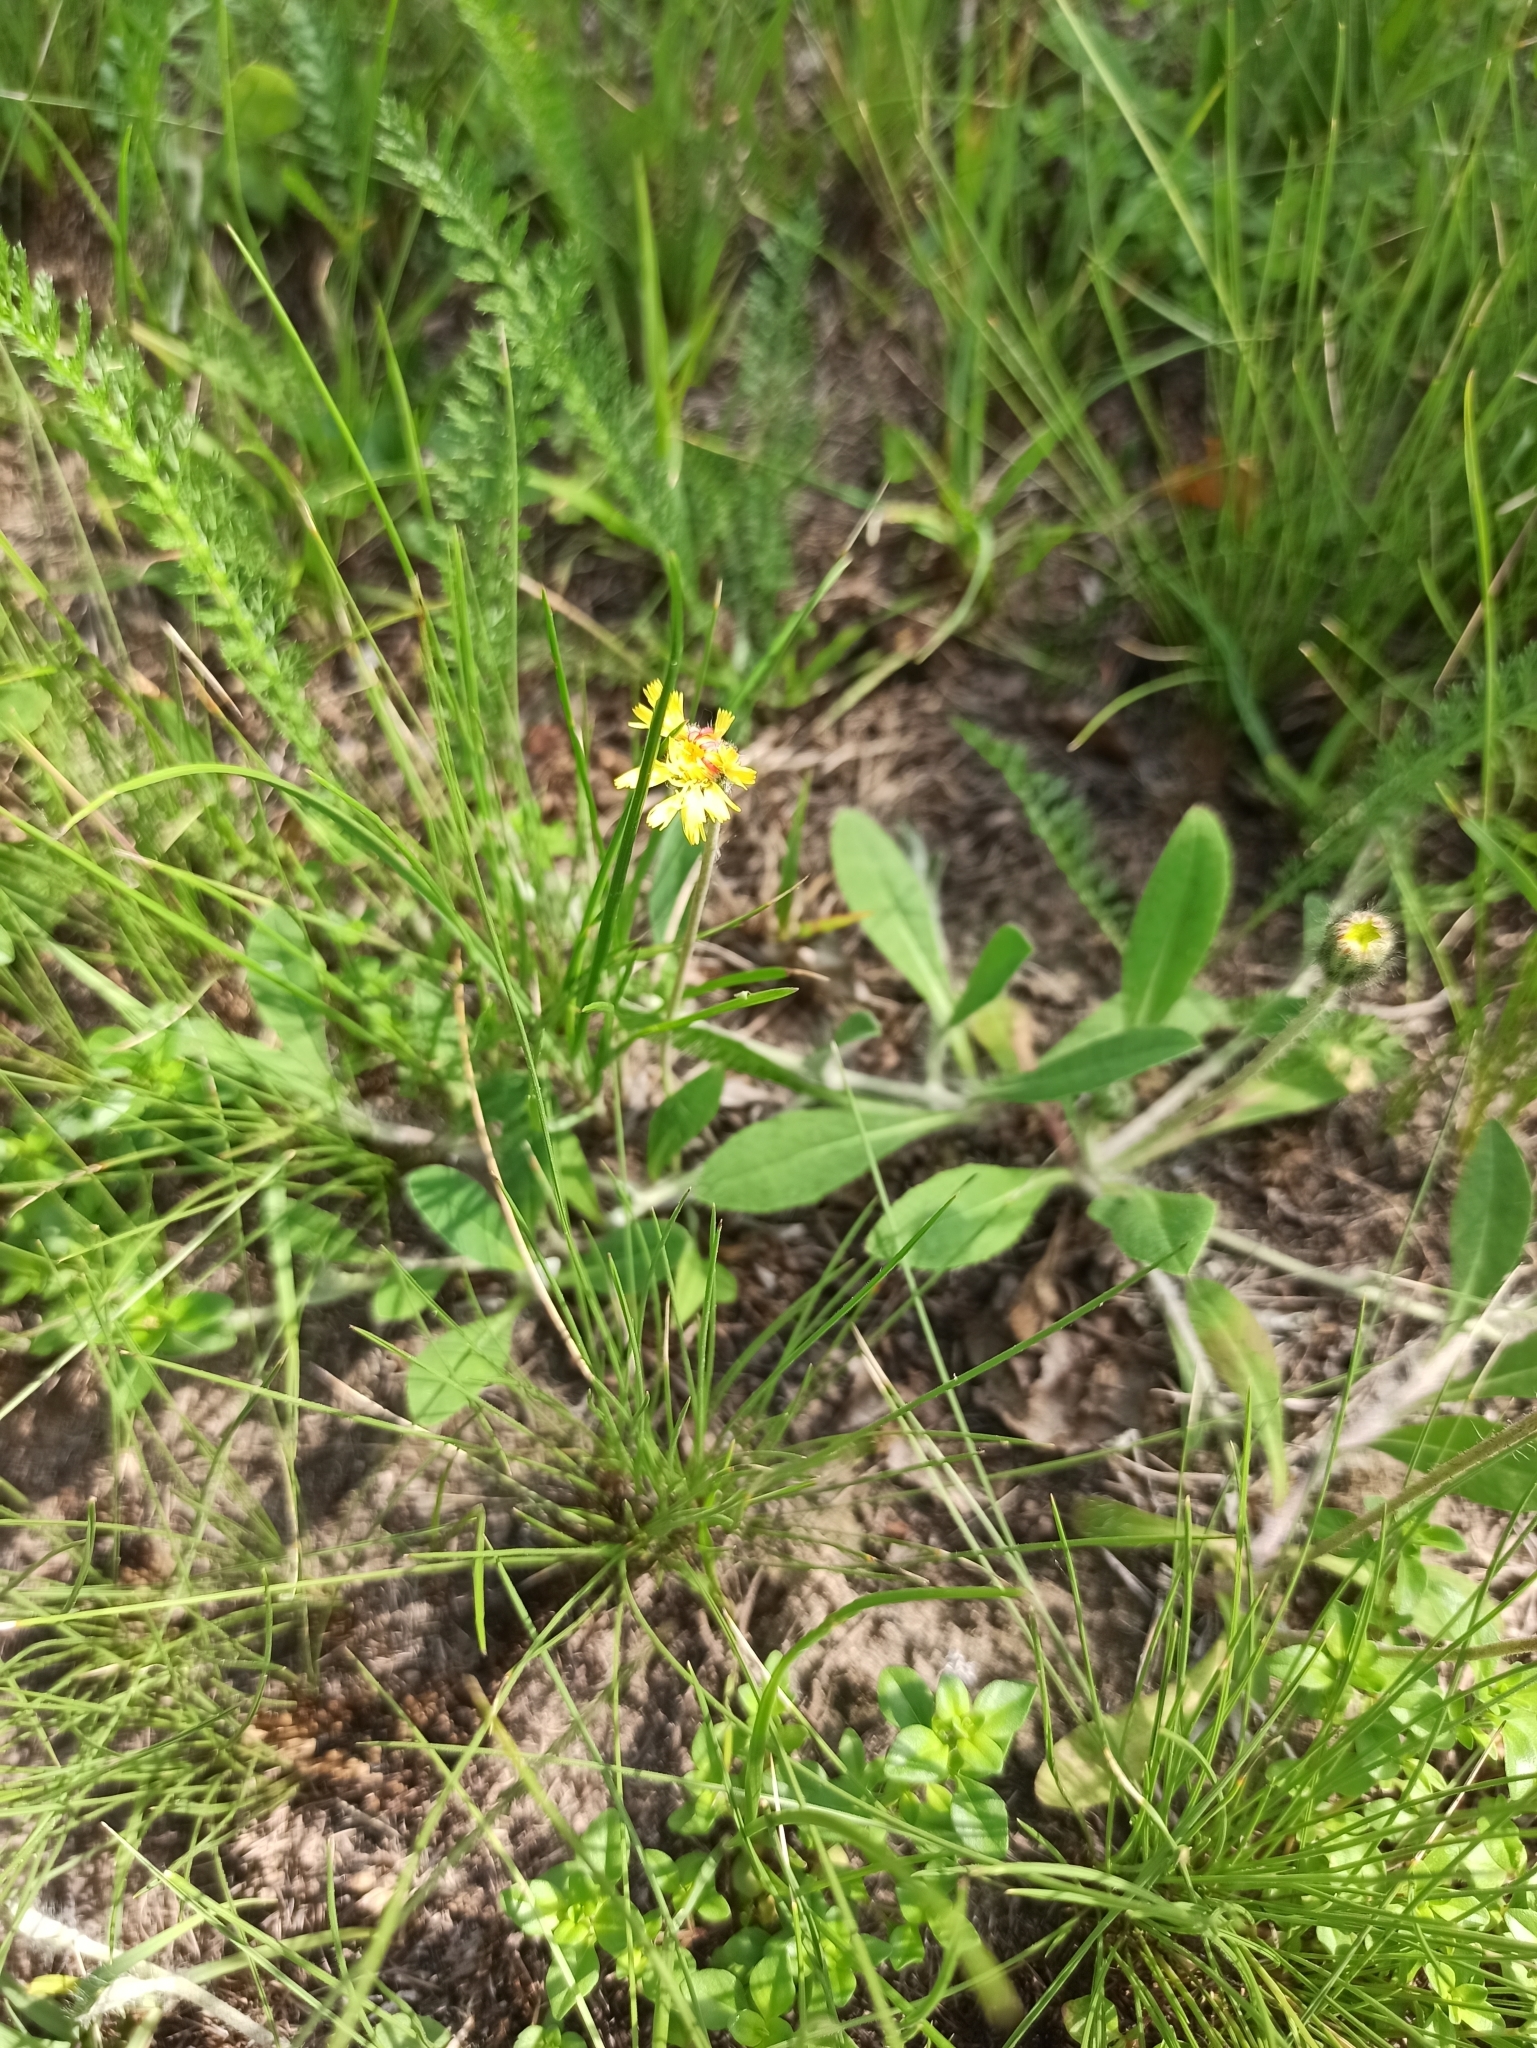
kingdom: Plantae
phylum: Tracheophyta
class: Magnoliopsida
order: Asterales
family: Asteraceae
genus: Pilosella
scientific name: Pilosella officinarum
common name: Mouse-ear hawkweed
